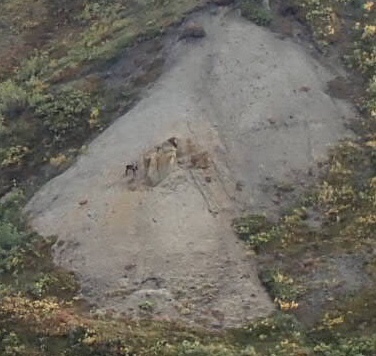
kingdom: Animalia
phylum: Chordata
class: Mammalia
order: Artiodactyla
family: Cervidae
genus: Rangifer
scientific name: Rangifer tarandus
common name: Reindeer
